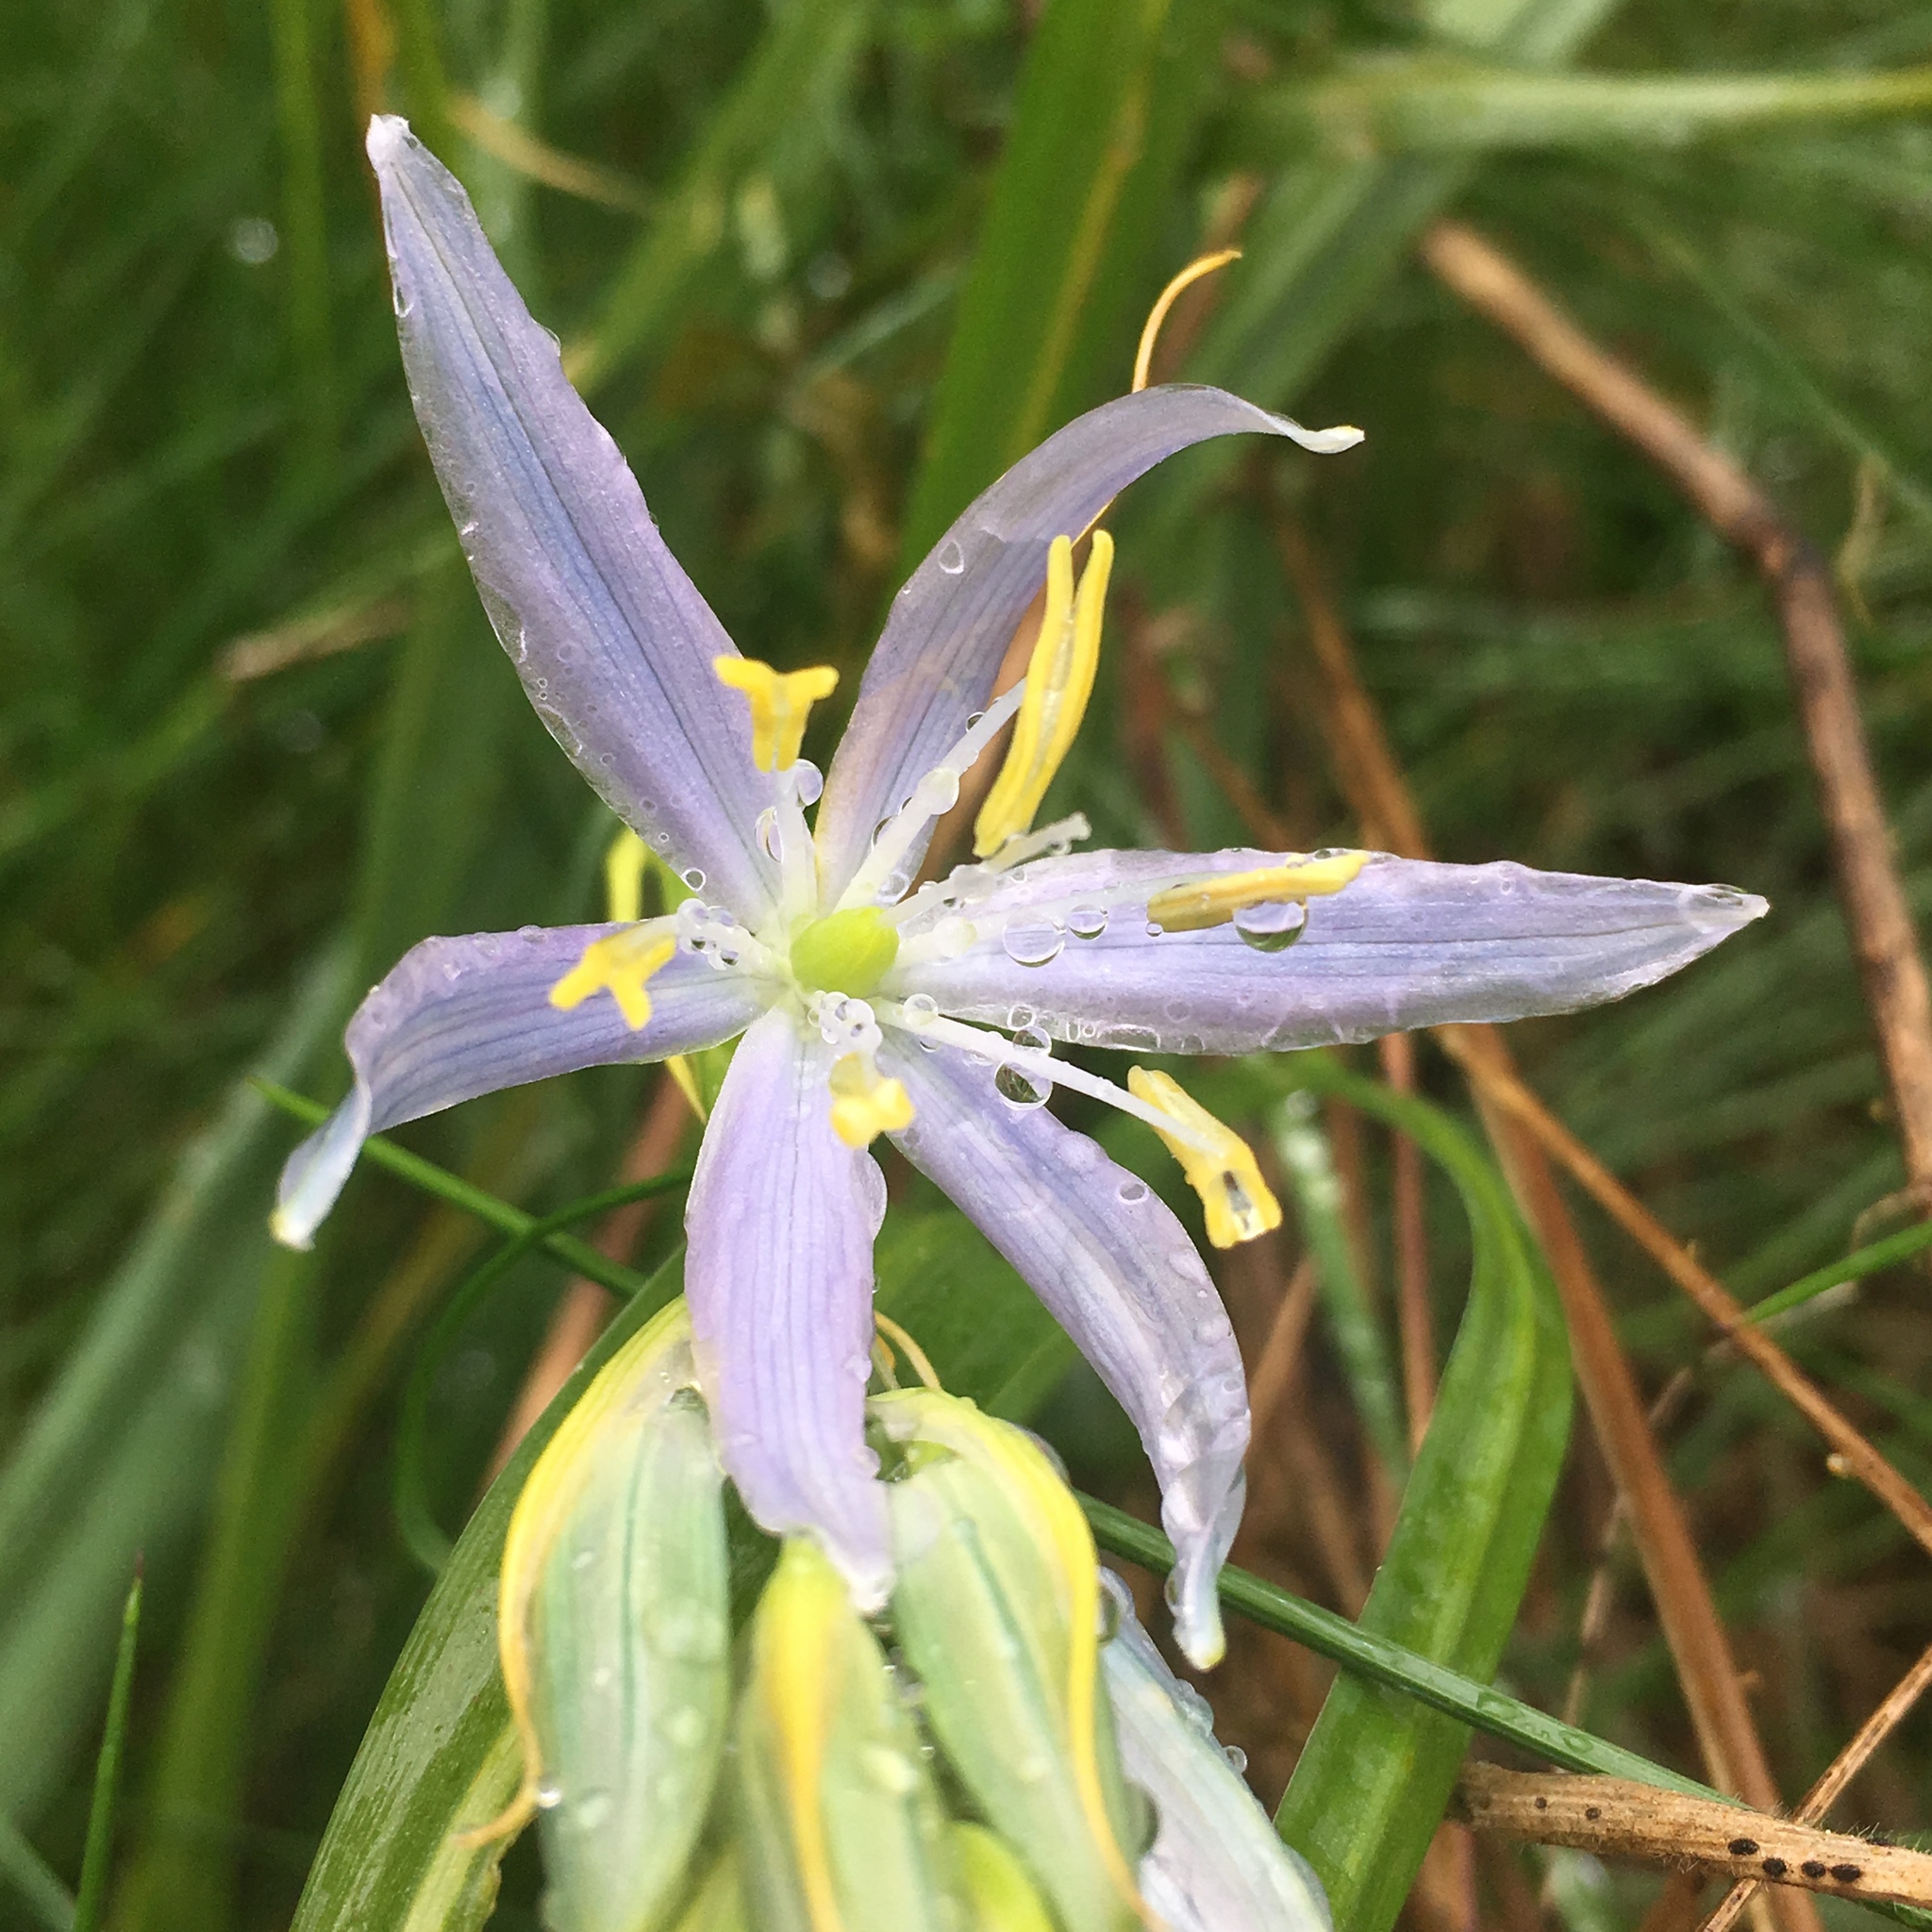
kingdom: Plantae
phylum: Tracheophyta
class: Liliopsida
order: Asparagales
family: Asparagaceae
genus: Camassia
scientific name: Camassia quamash
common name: Common camas
